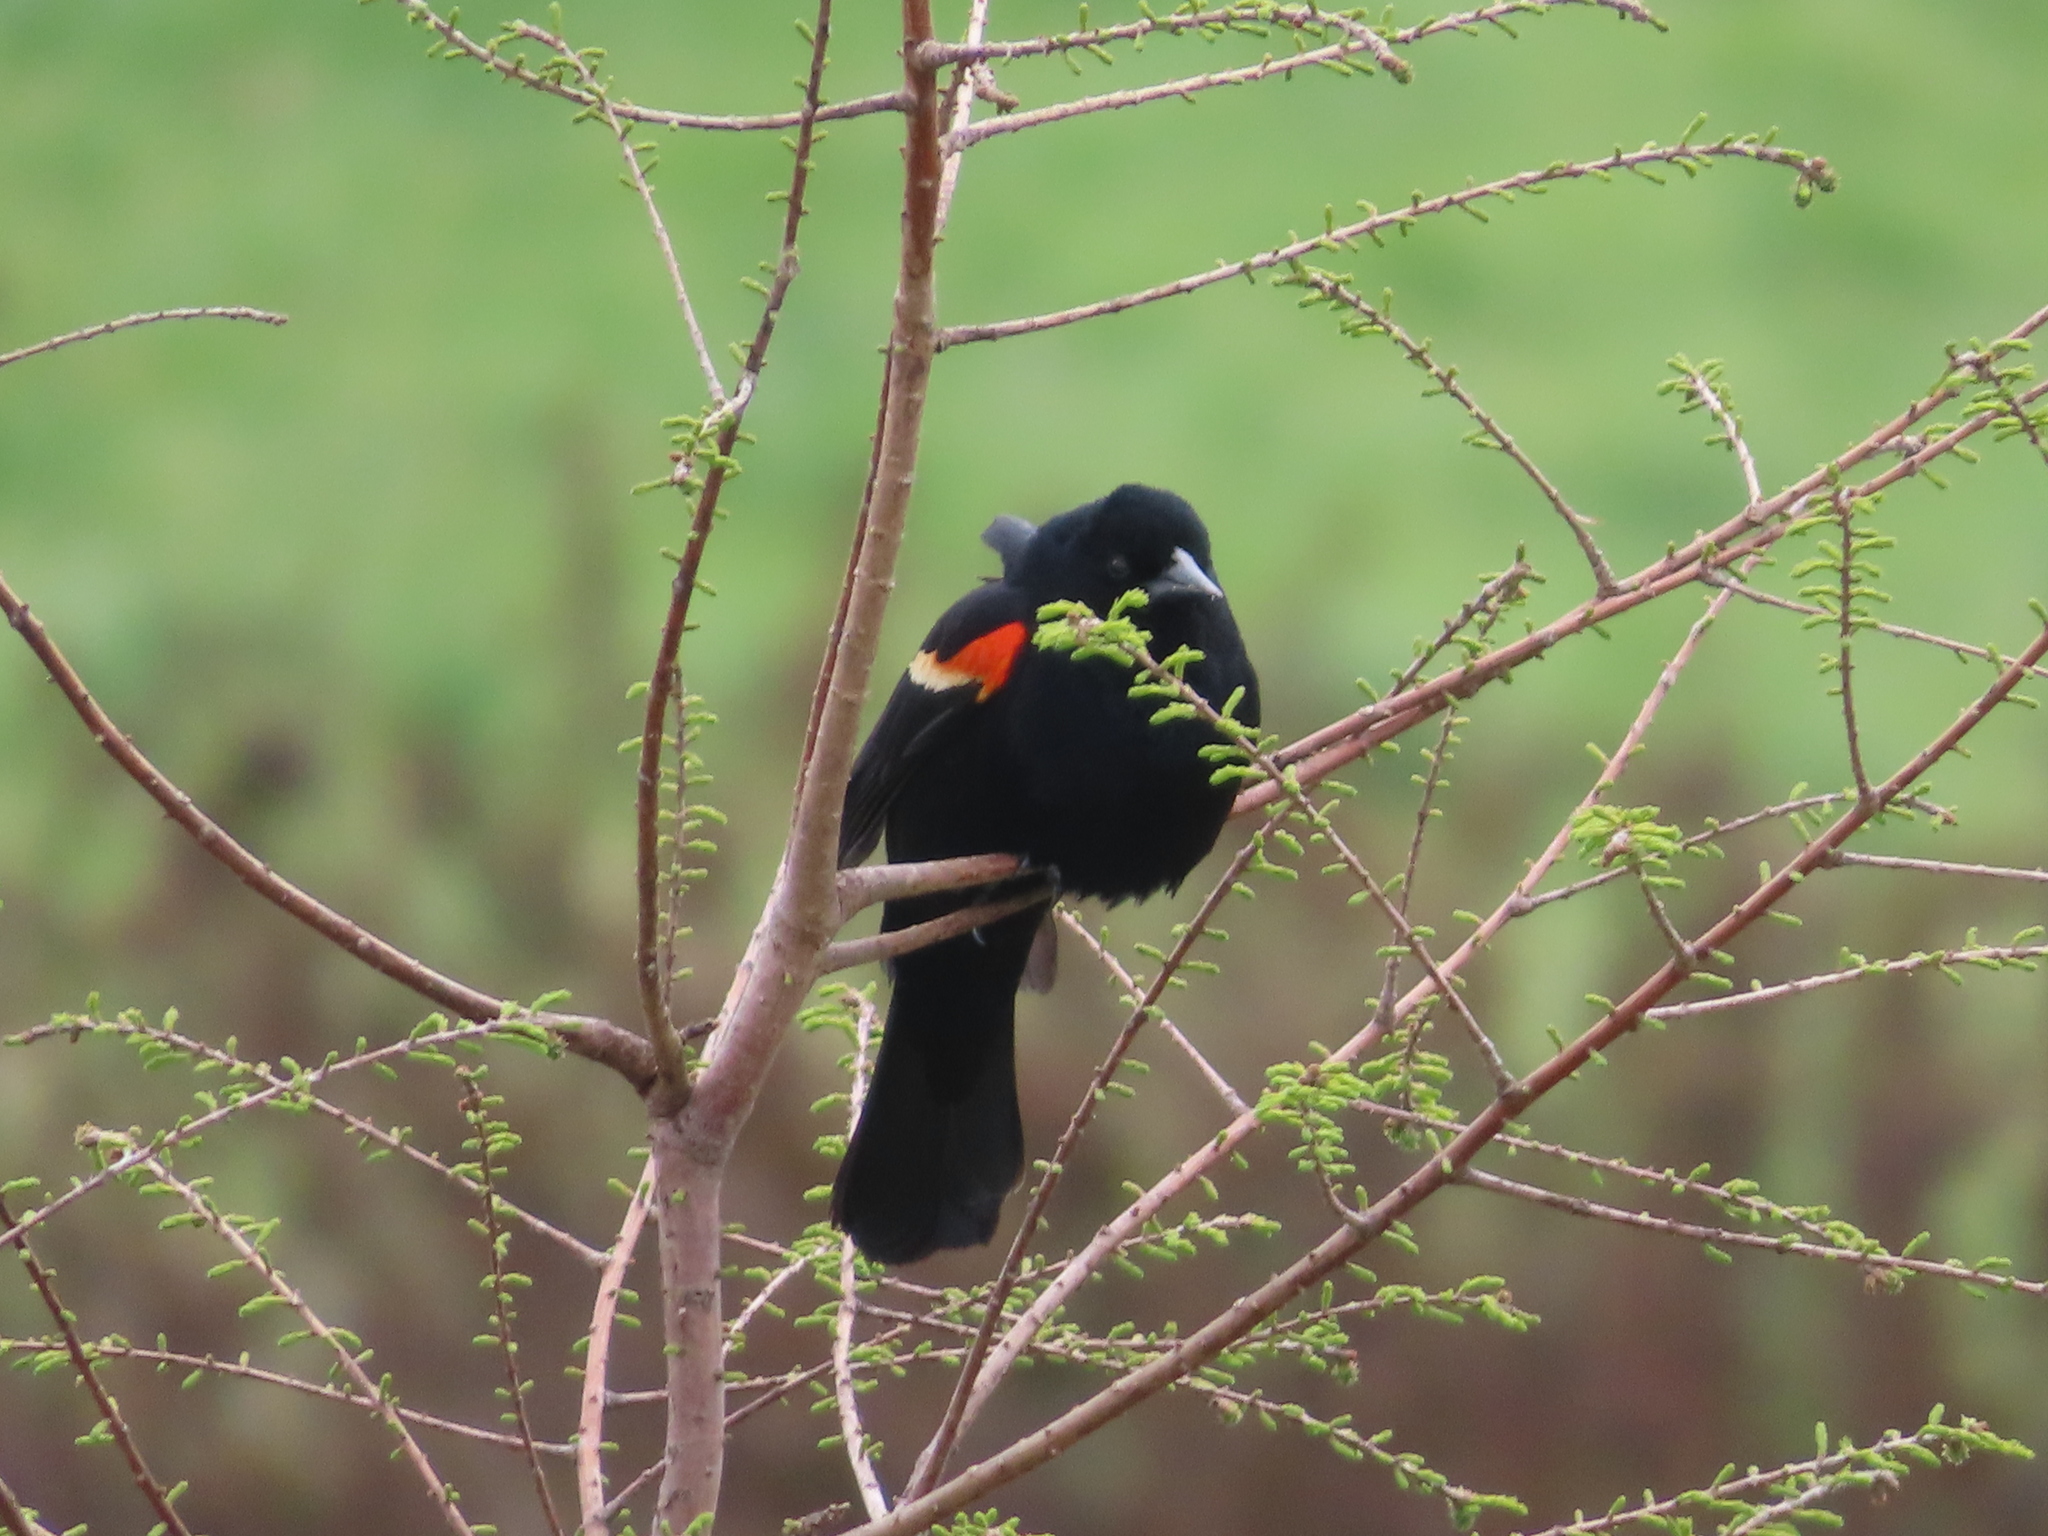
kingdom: Animalia
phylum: Chordata
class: Aves
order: Passeriformes
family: Icteridae
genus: Agelaius
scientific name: Agelaius phoeniceus
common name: Red-winged blackbird
